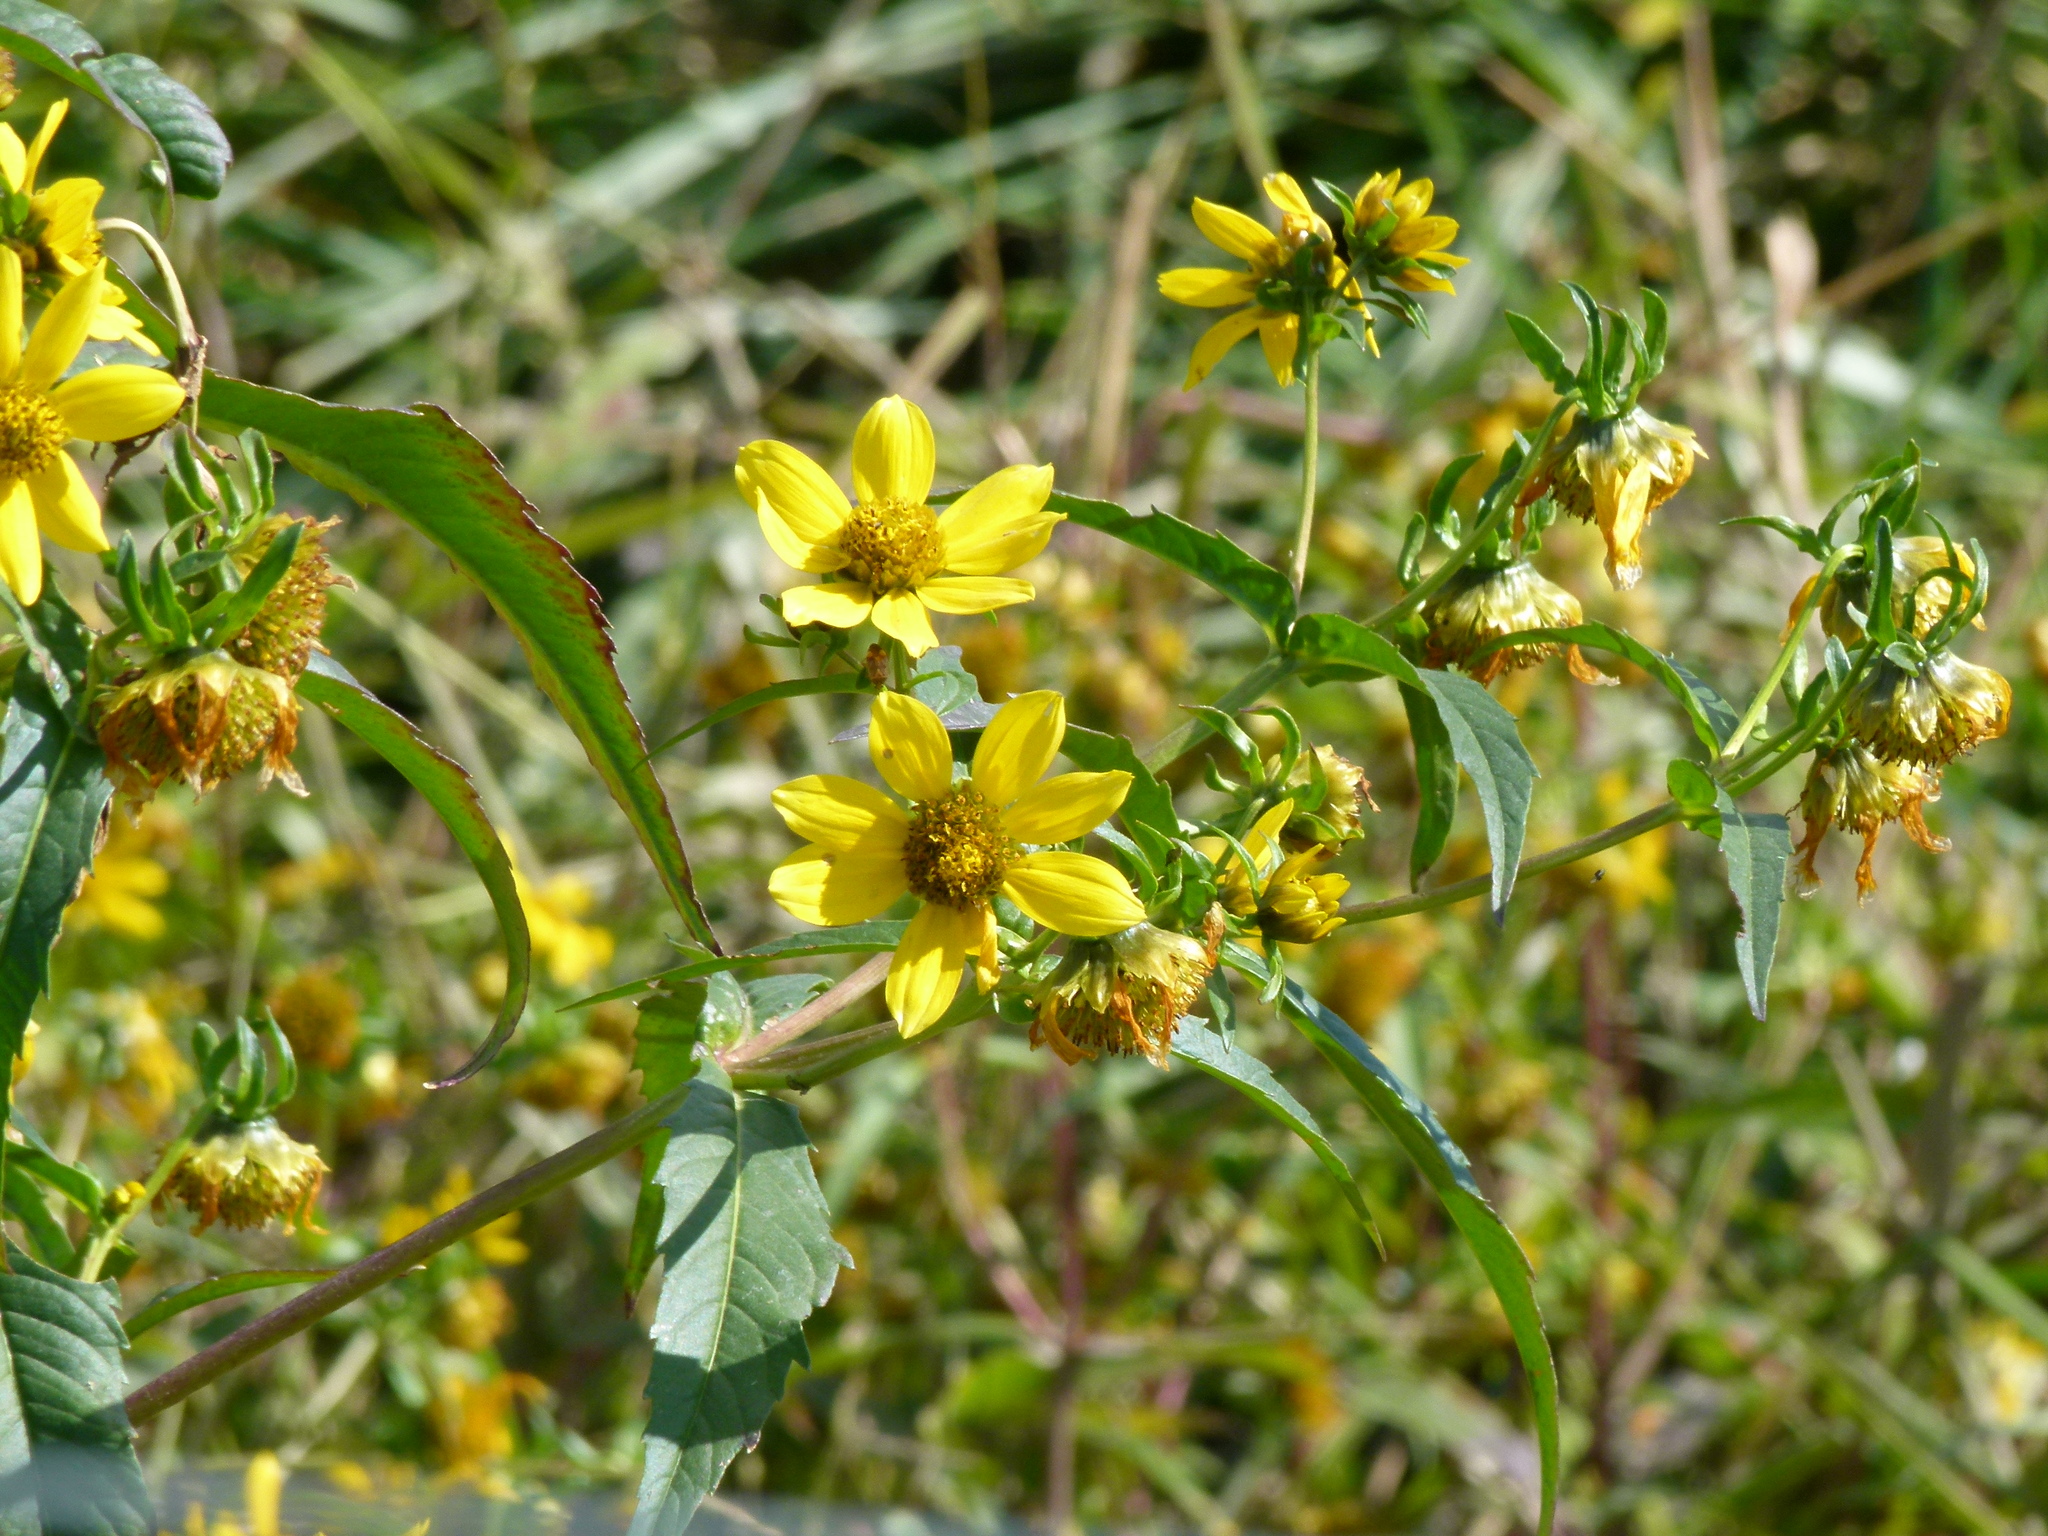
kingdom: Plantae
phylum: Tracheophyta
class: Magnoliopsida
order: Asterales
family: Asteraceae
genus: Bidens
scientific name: Bidens cernua
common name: Nodding bur-marigold
